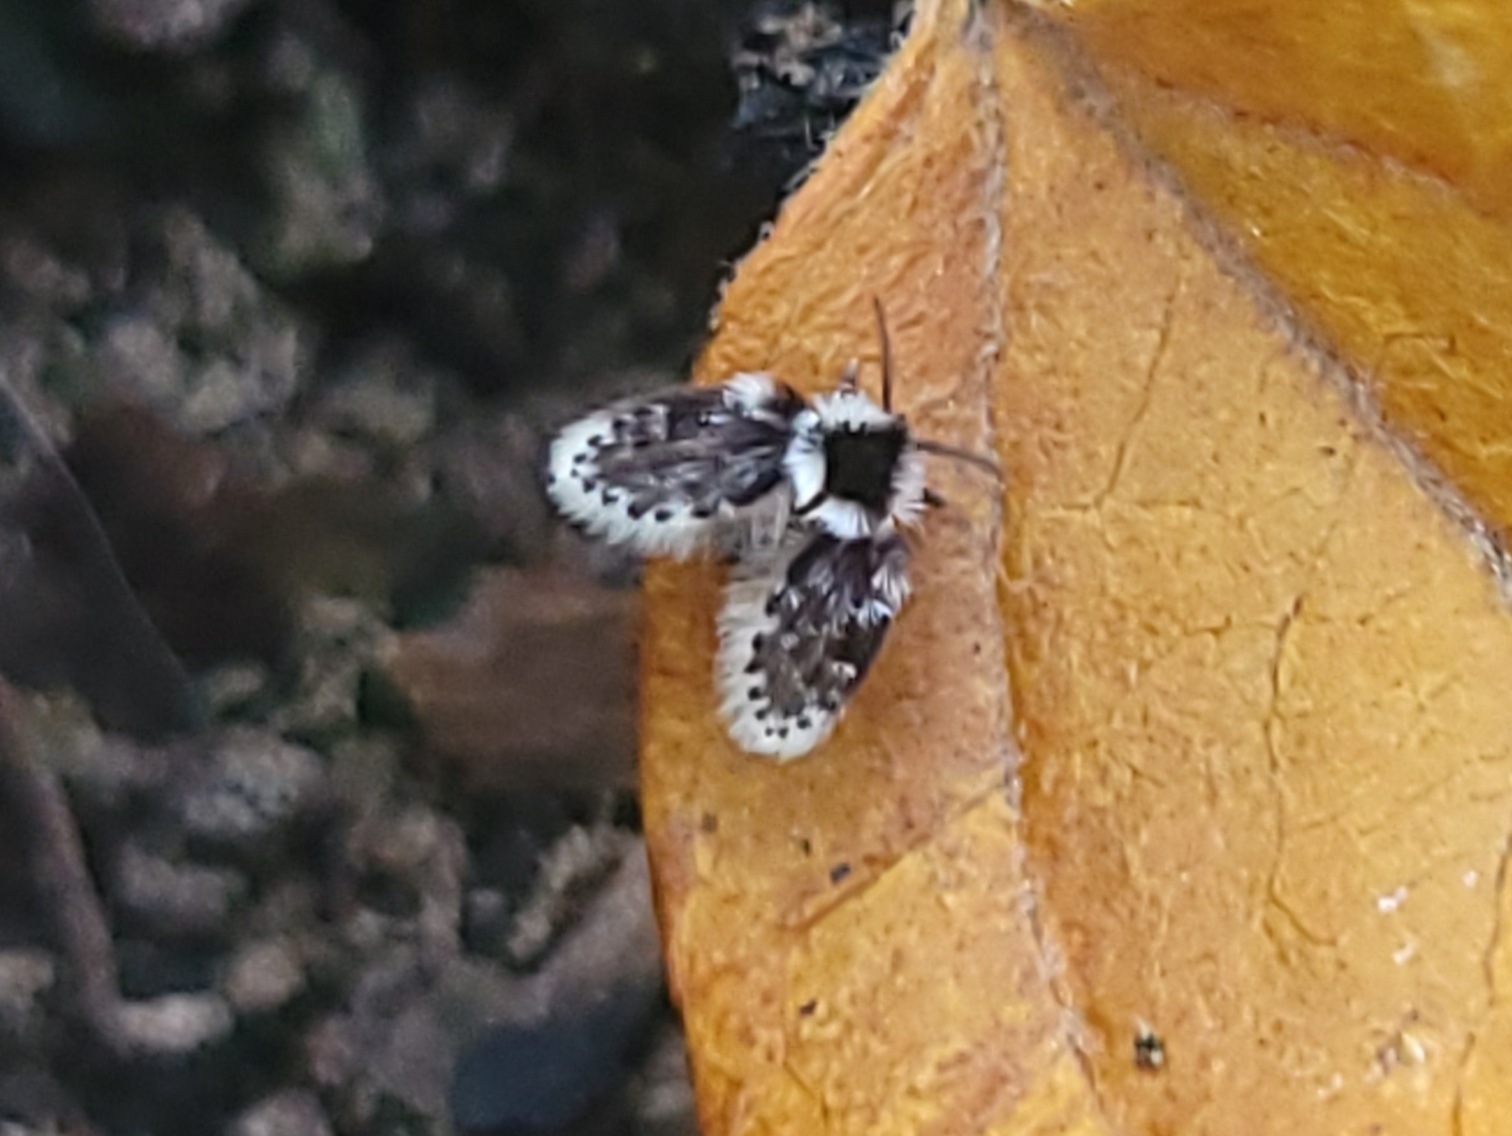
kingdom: Animalia
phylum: Arthropoda
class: Insecta
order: Diptera
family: Psychodidae
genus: Lepiseodina
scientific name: Lepiseodina
